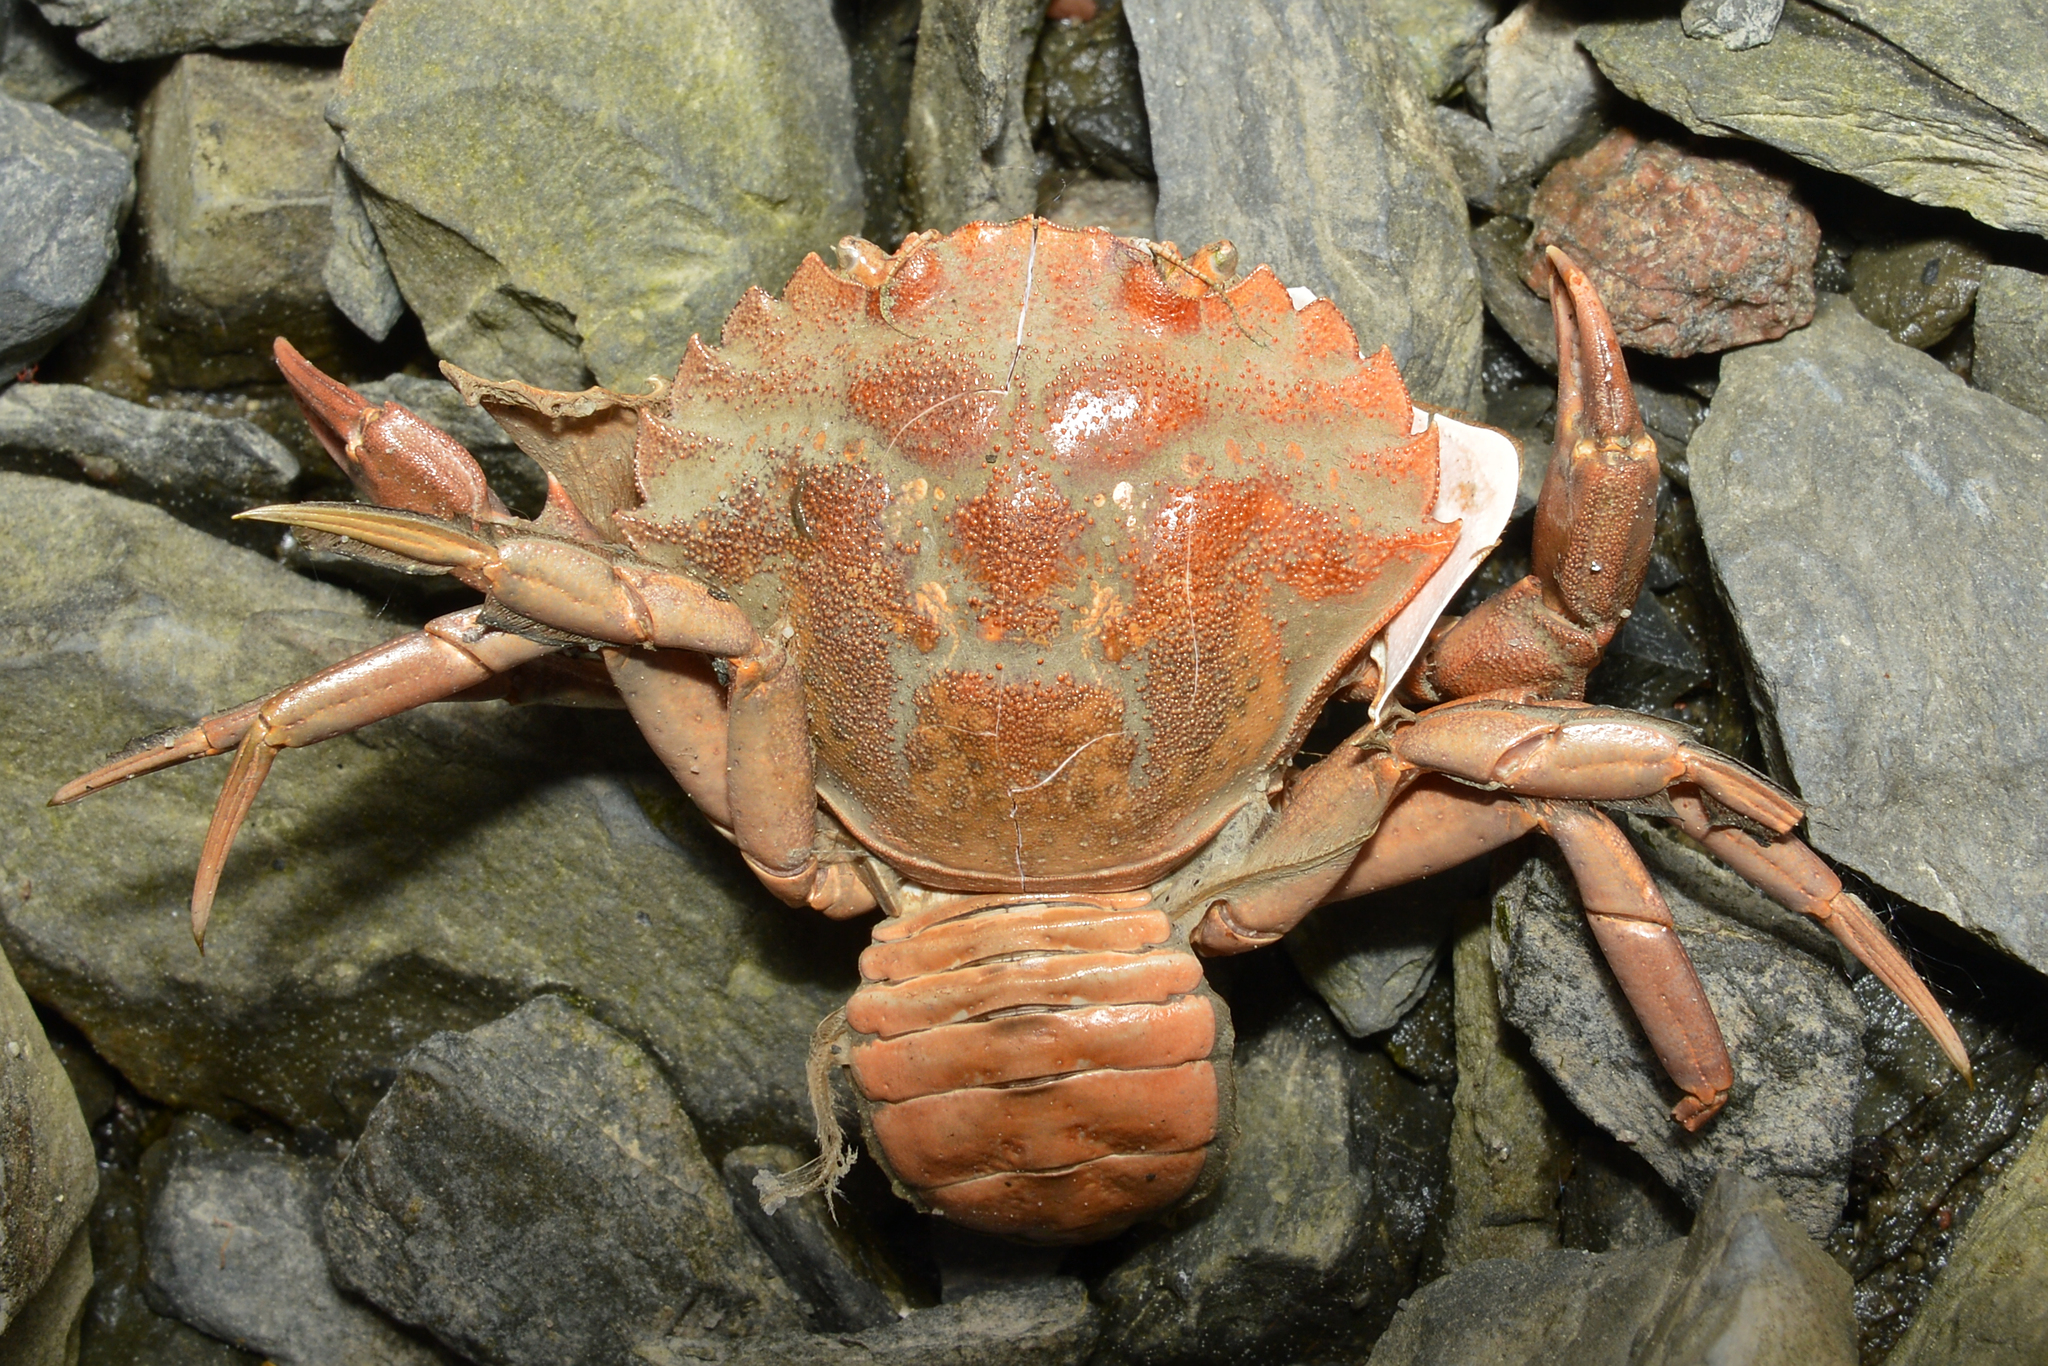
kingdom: Animalia
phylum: Arthropoda
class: Malacostraca
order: Decapoda
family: Carcinidae
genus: Carcinus
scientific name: Carcinus maenas
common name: European green crab
